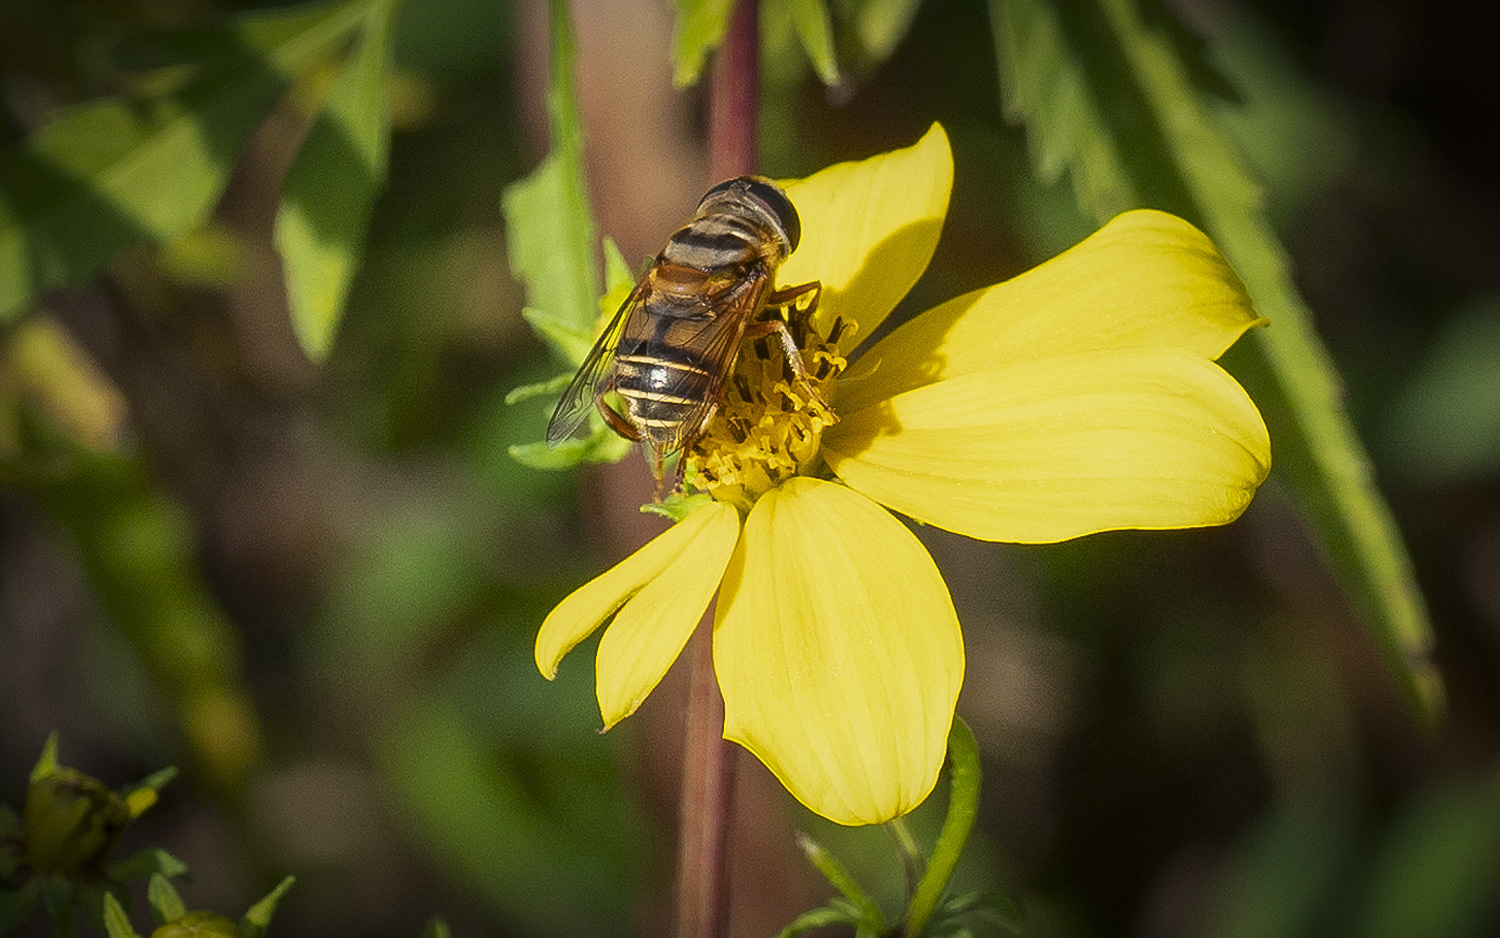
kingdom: Animalia
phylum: Arthropoda
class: Insecta
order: Diptera
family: Syrphidae
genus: Palpada
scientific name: Palpada vinetorum
